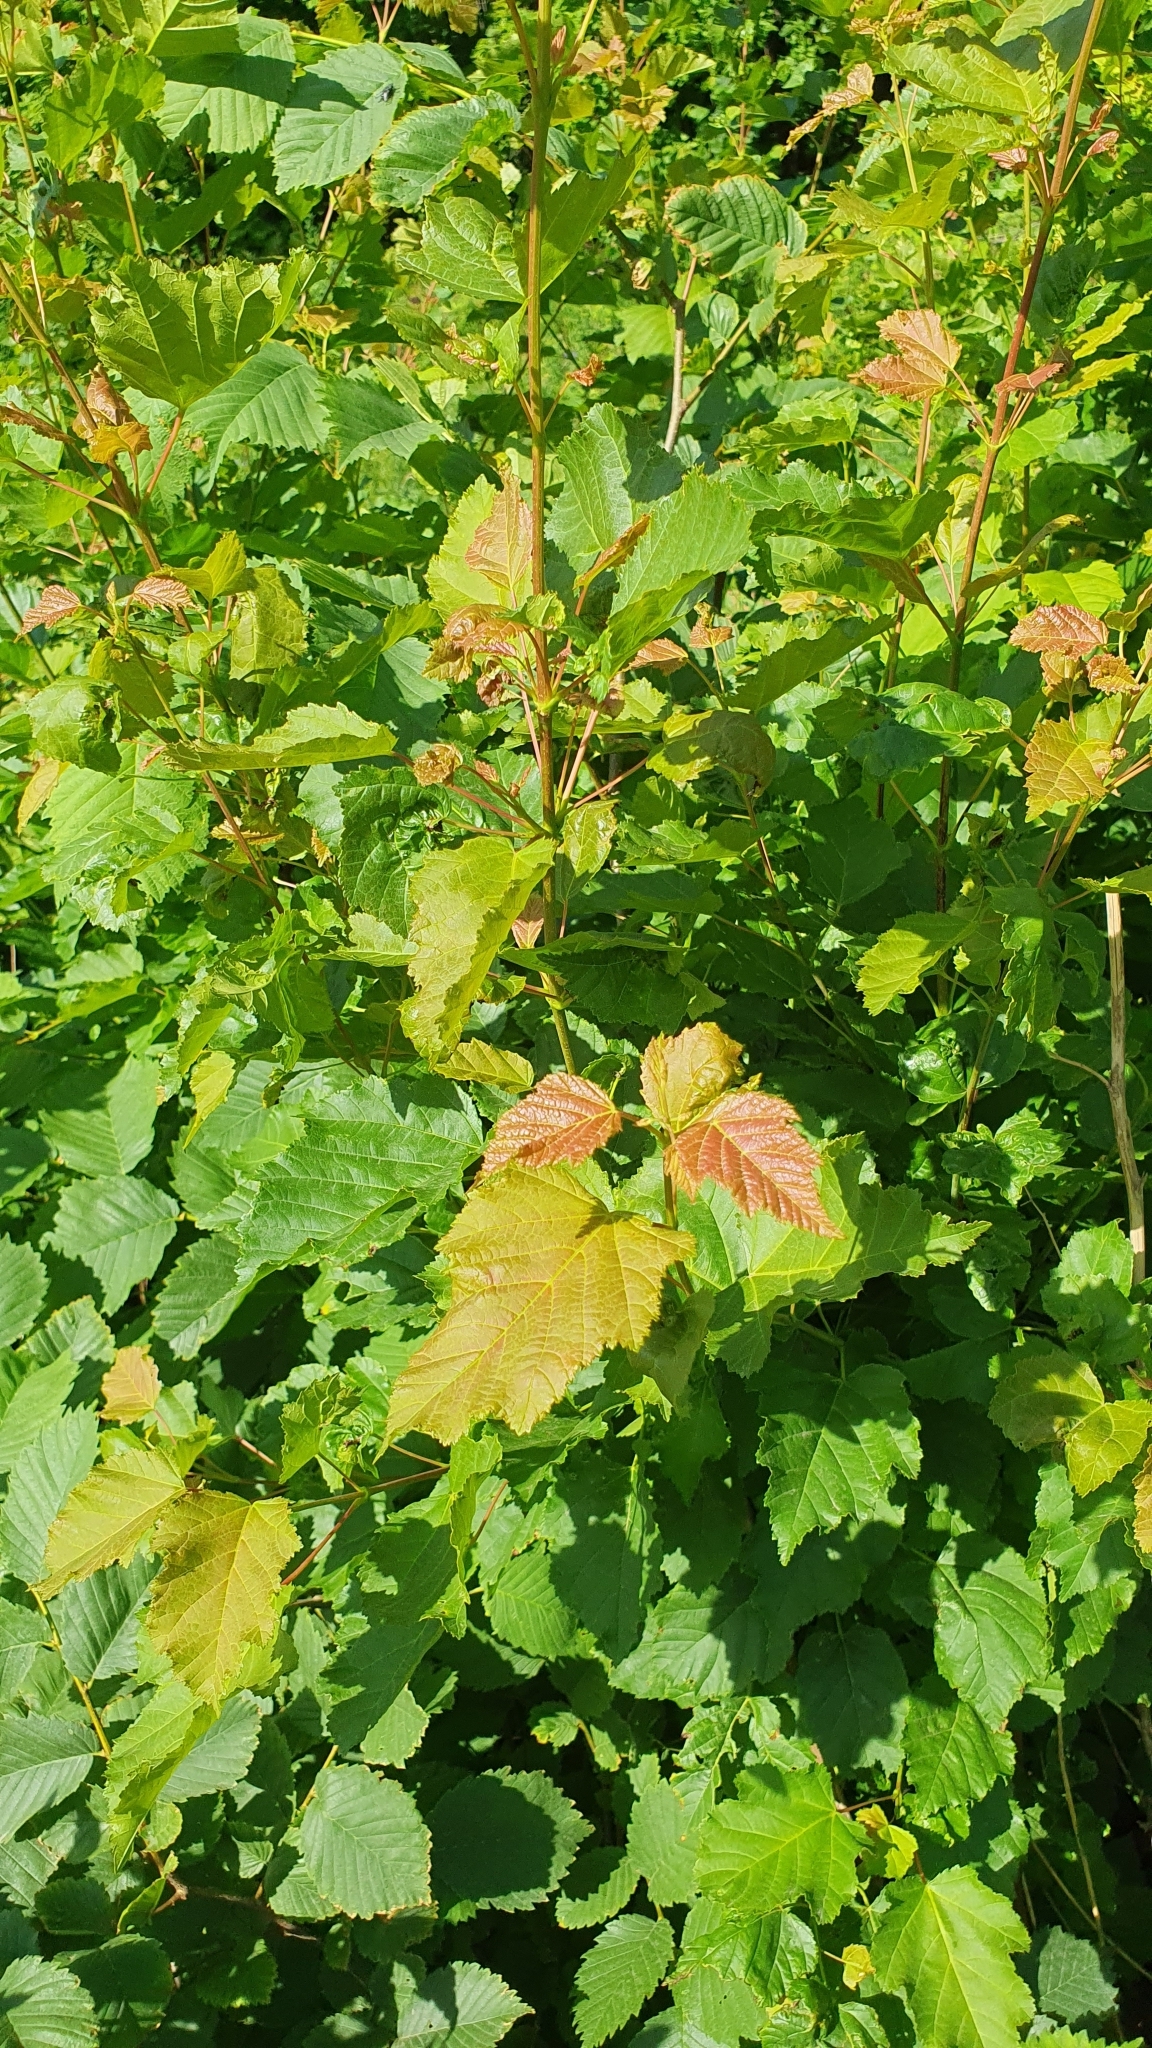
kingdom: Plantae
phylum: Tracheophyta
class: Magnoliopsida
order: Sapindales
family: Sapindaceae
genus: Acer
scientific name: Acer tataricum
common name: Tartar maple
